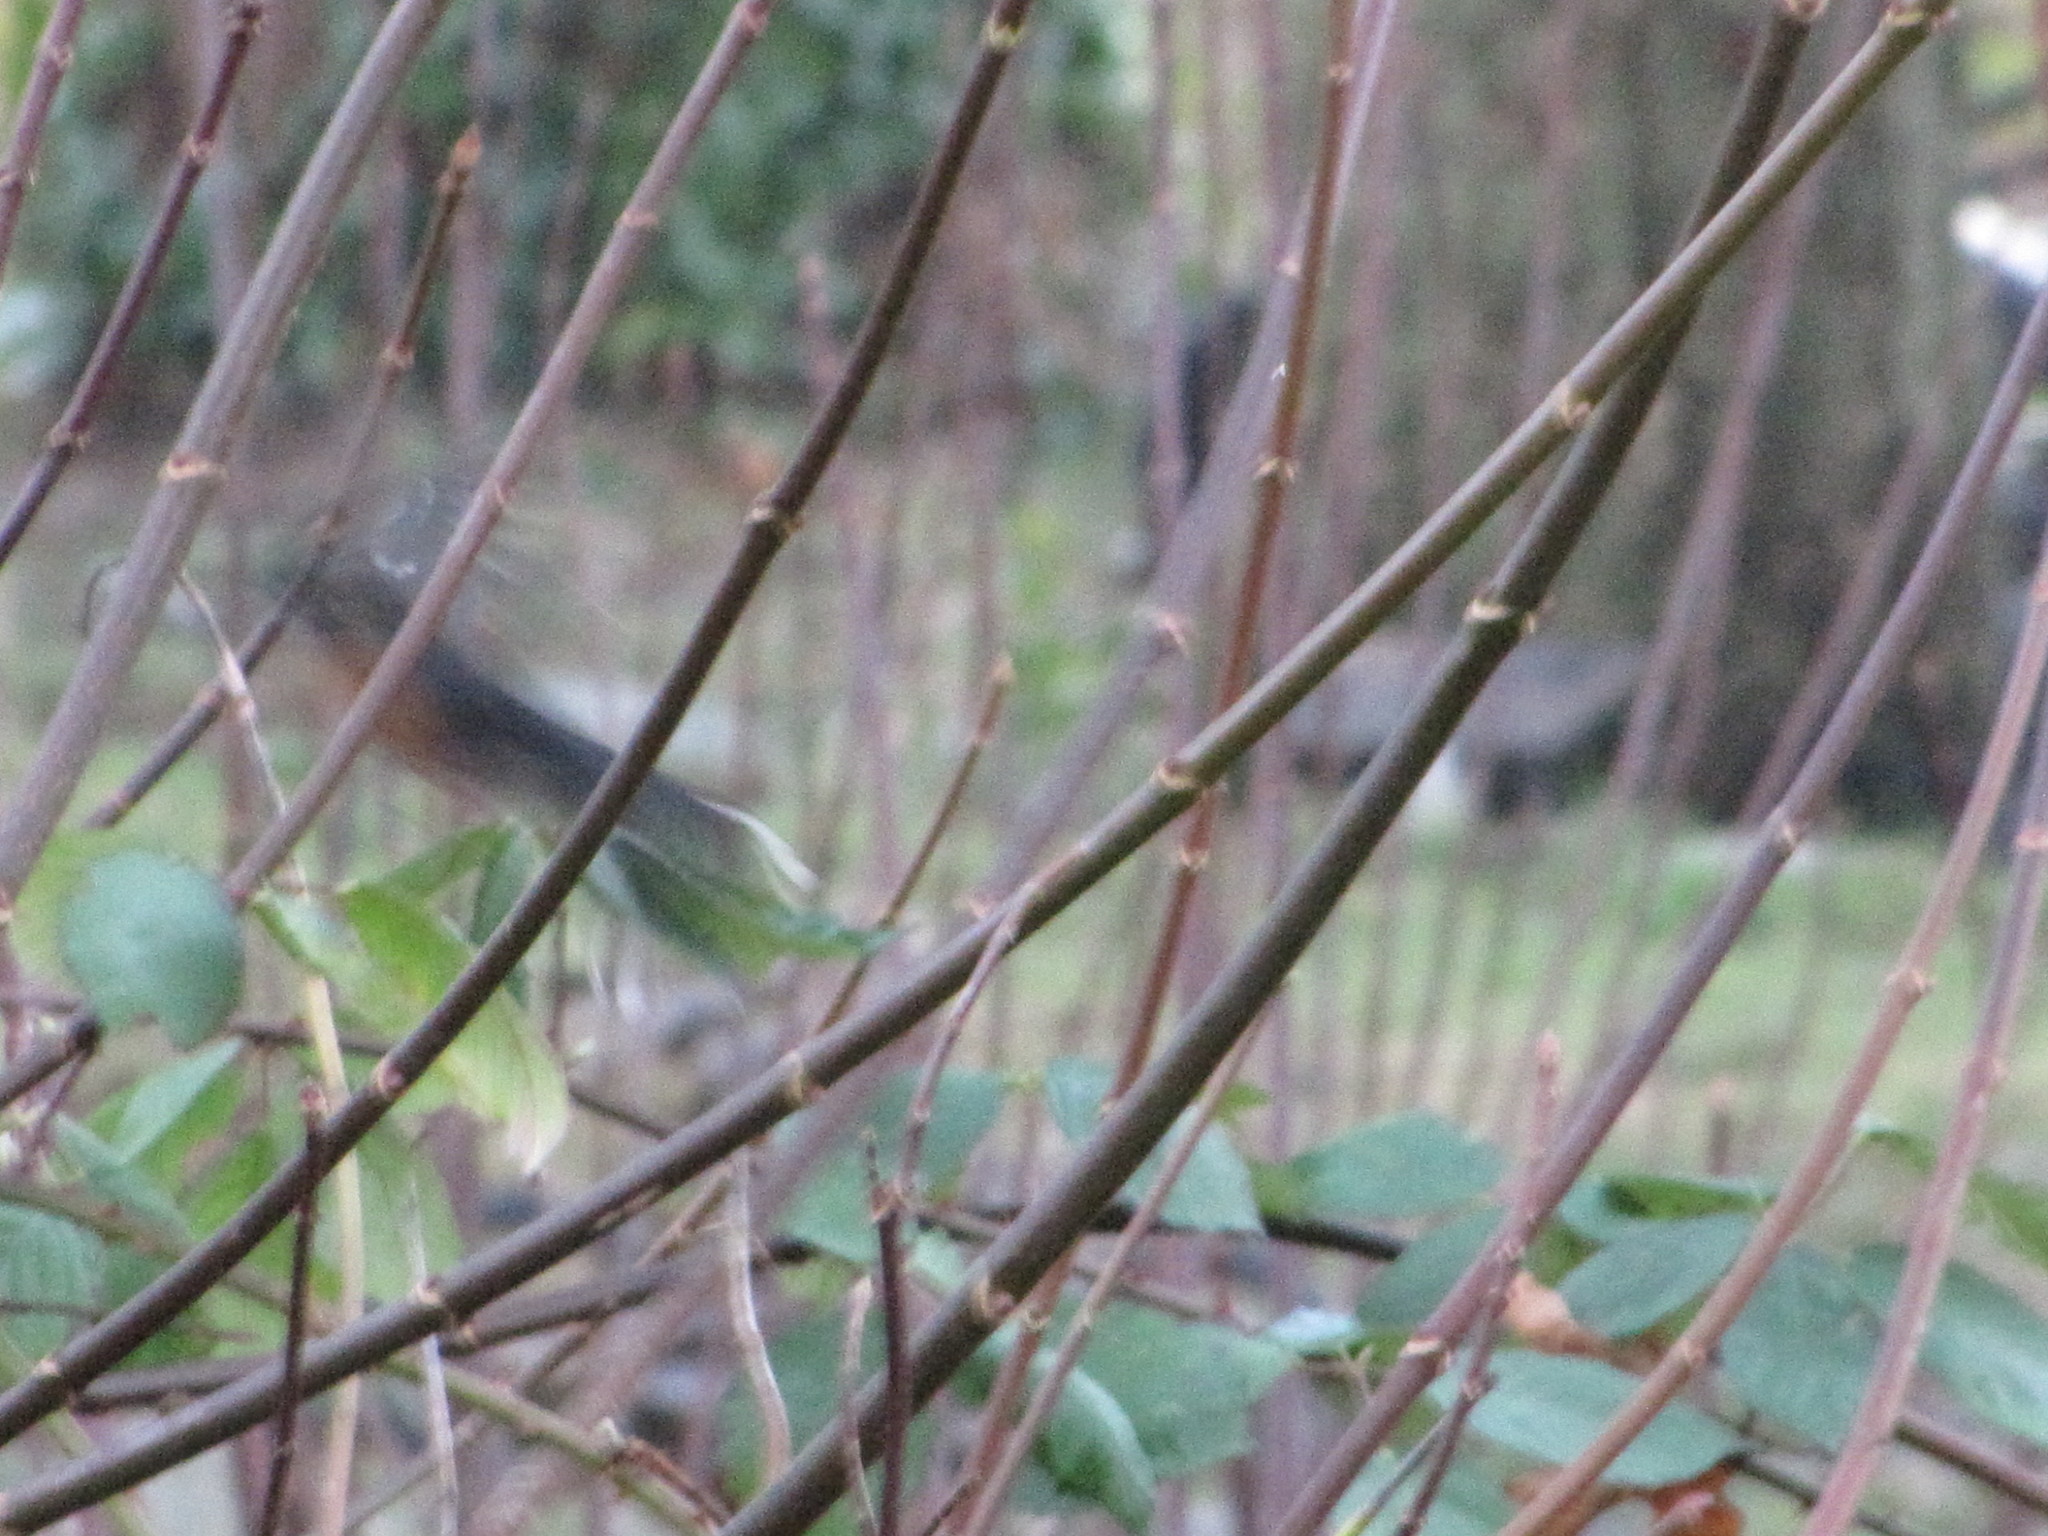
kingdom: Animalia
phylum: Chordata
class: Aves
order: Passeriformes
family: Passerellidae
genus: Pipilo
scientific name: Pipilo maculatus
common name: Spotted towhee
